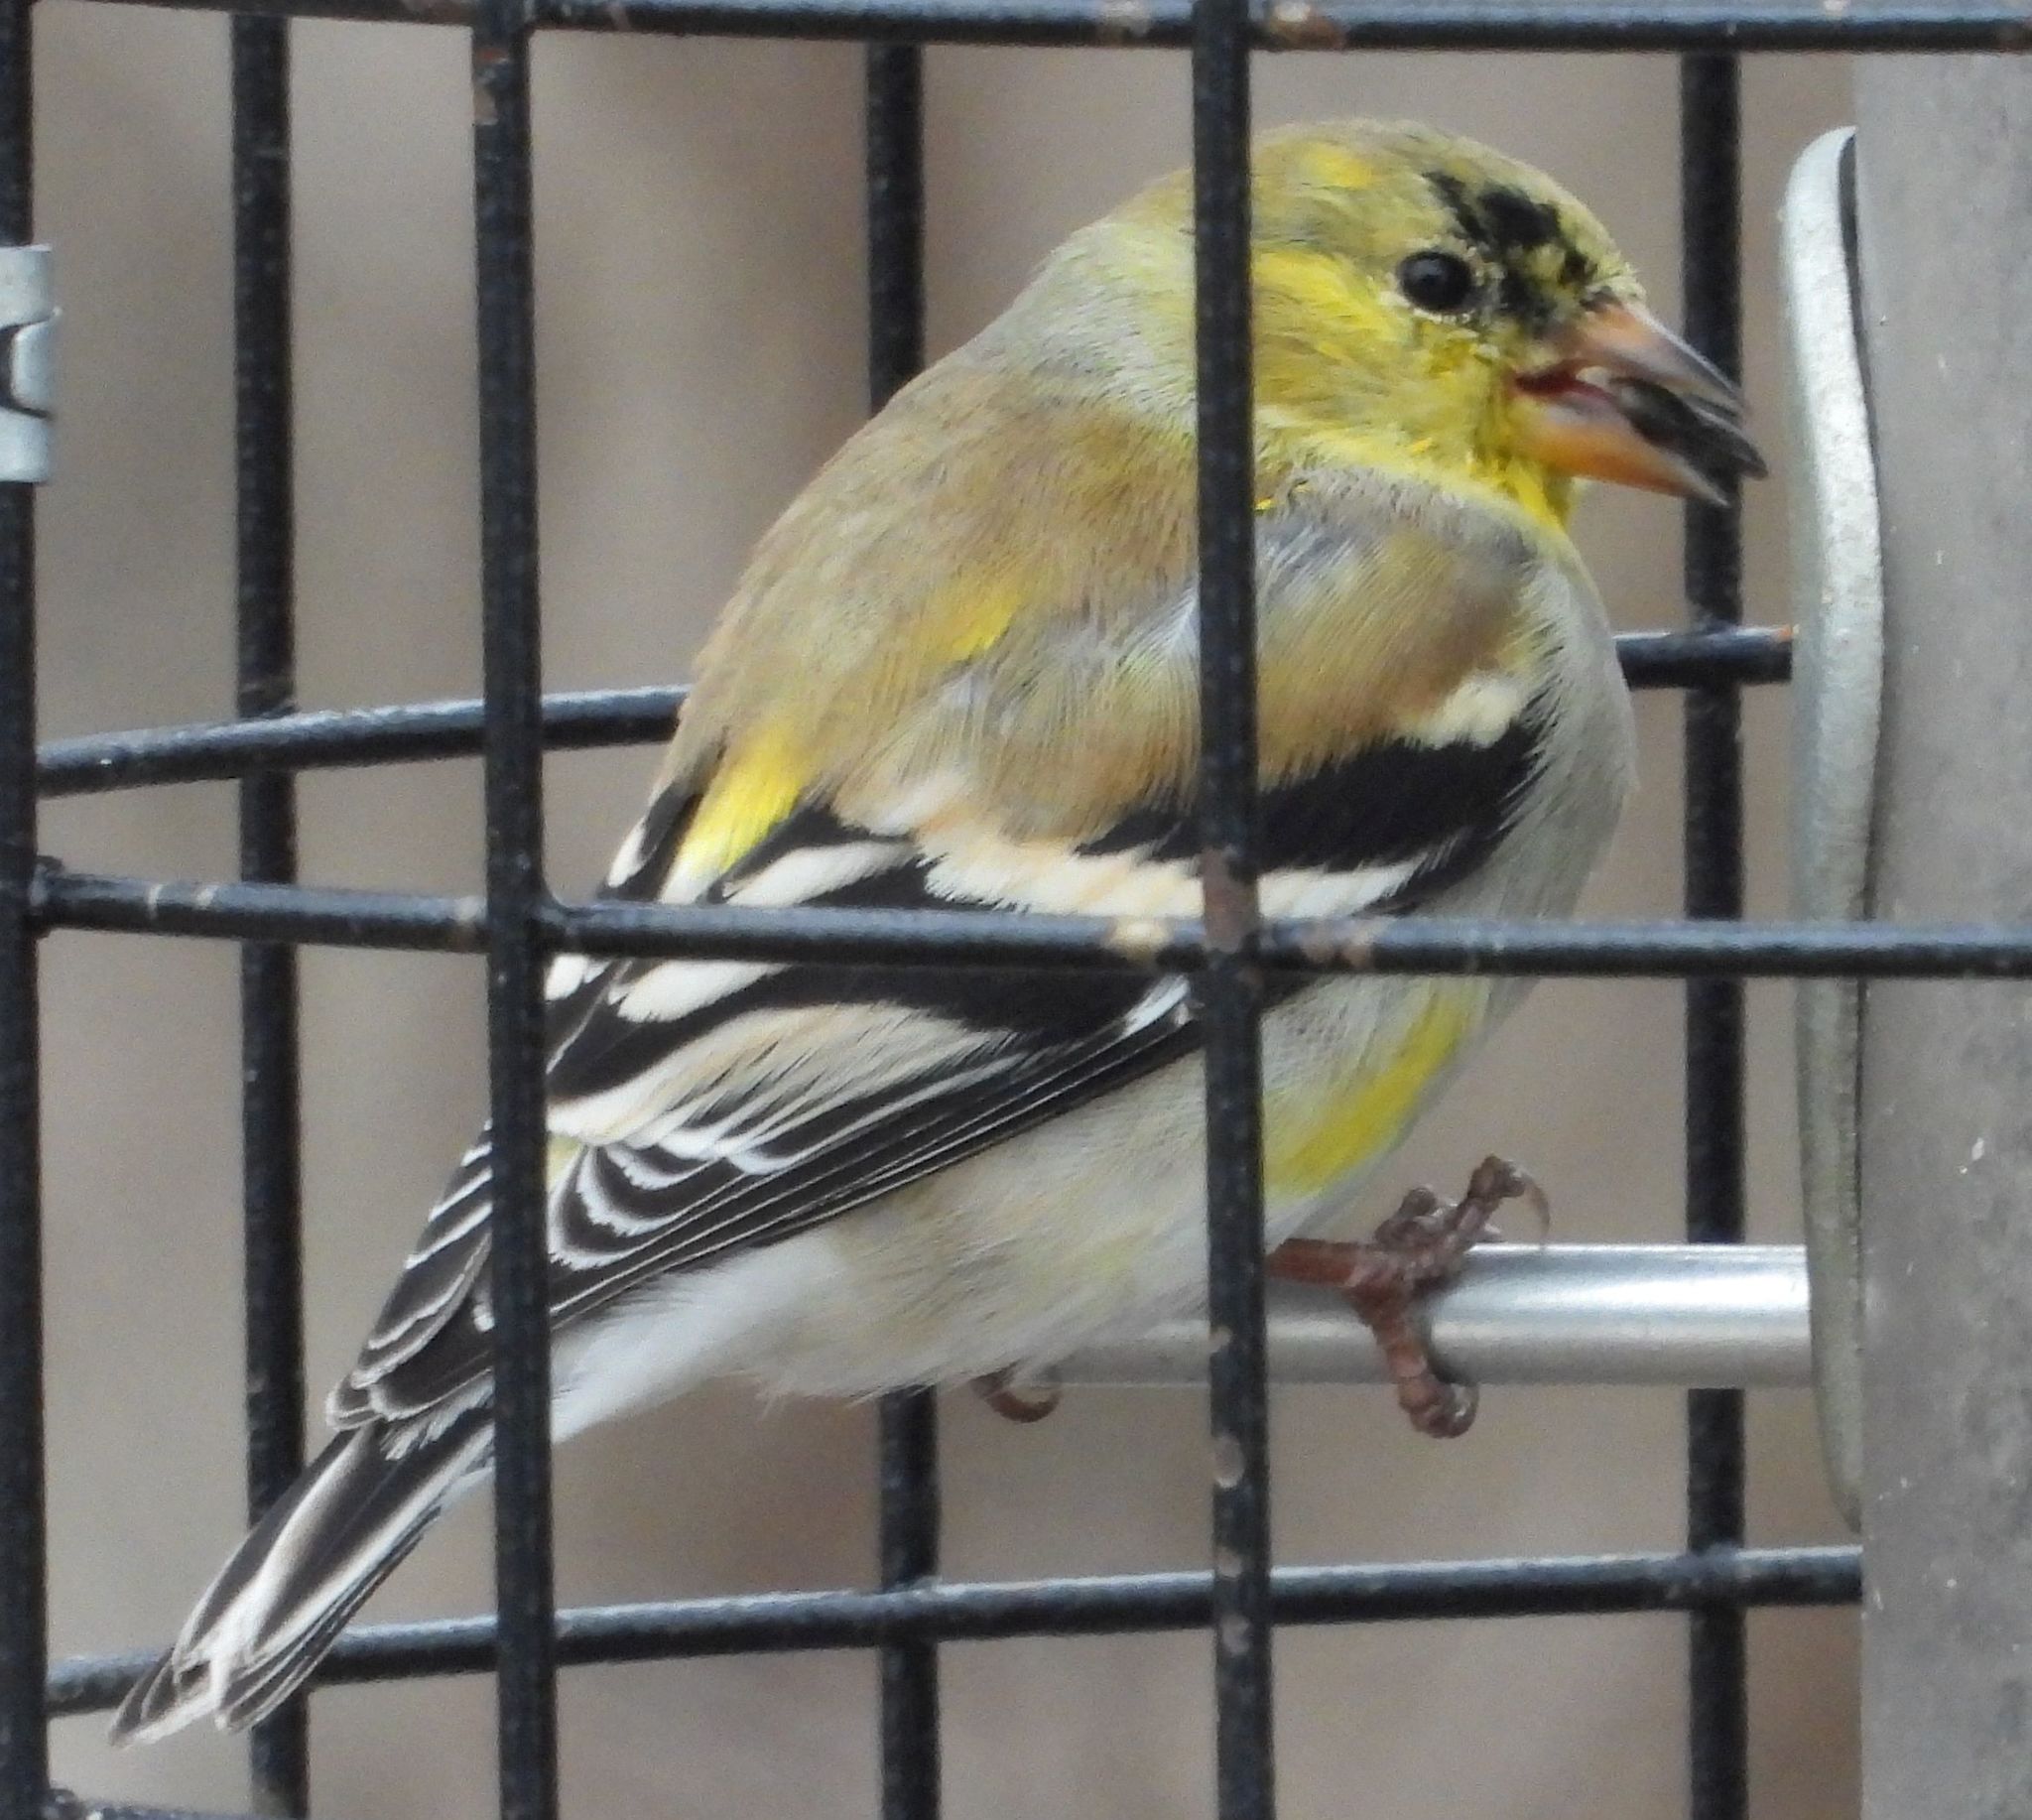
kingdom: Animalia
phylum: Chordata
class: Aves
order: Passeriformes
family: Fringillidae
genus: Spinus
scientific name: Spinus tristis
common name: American goldfinch
